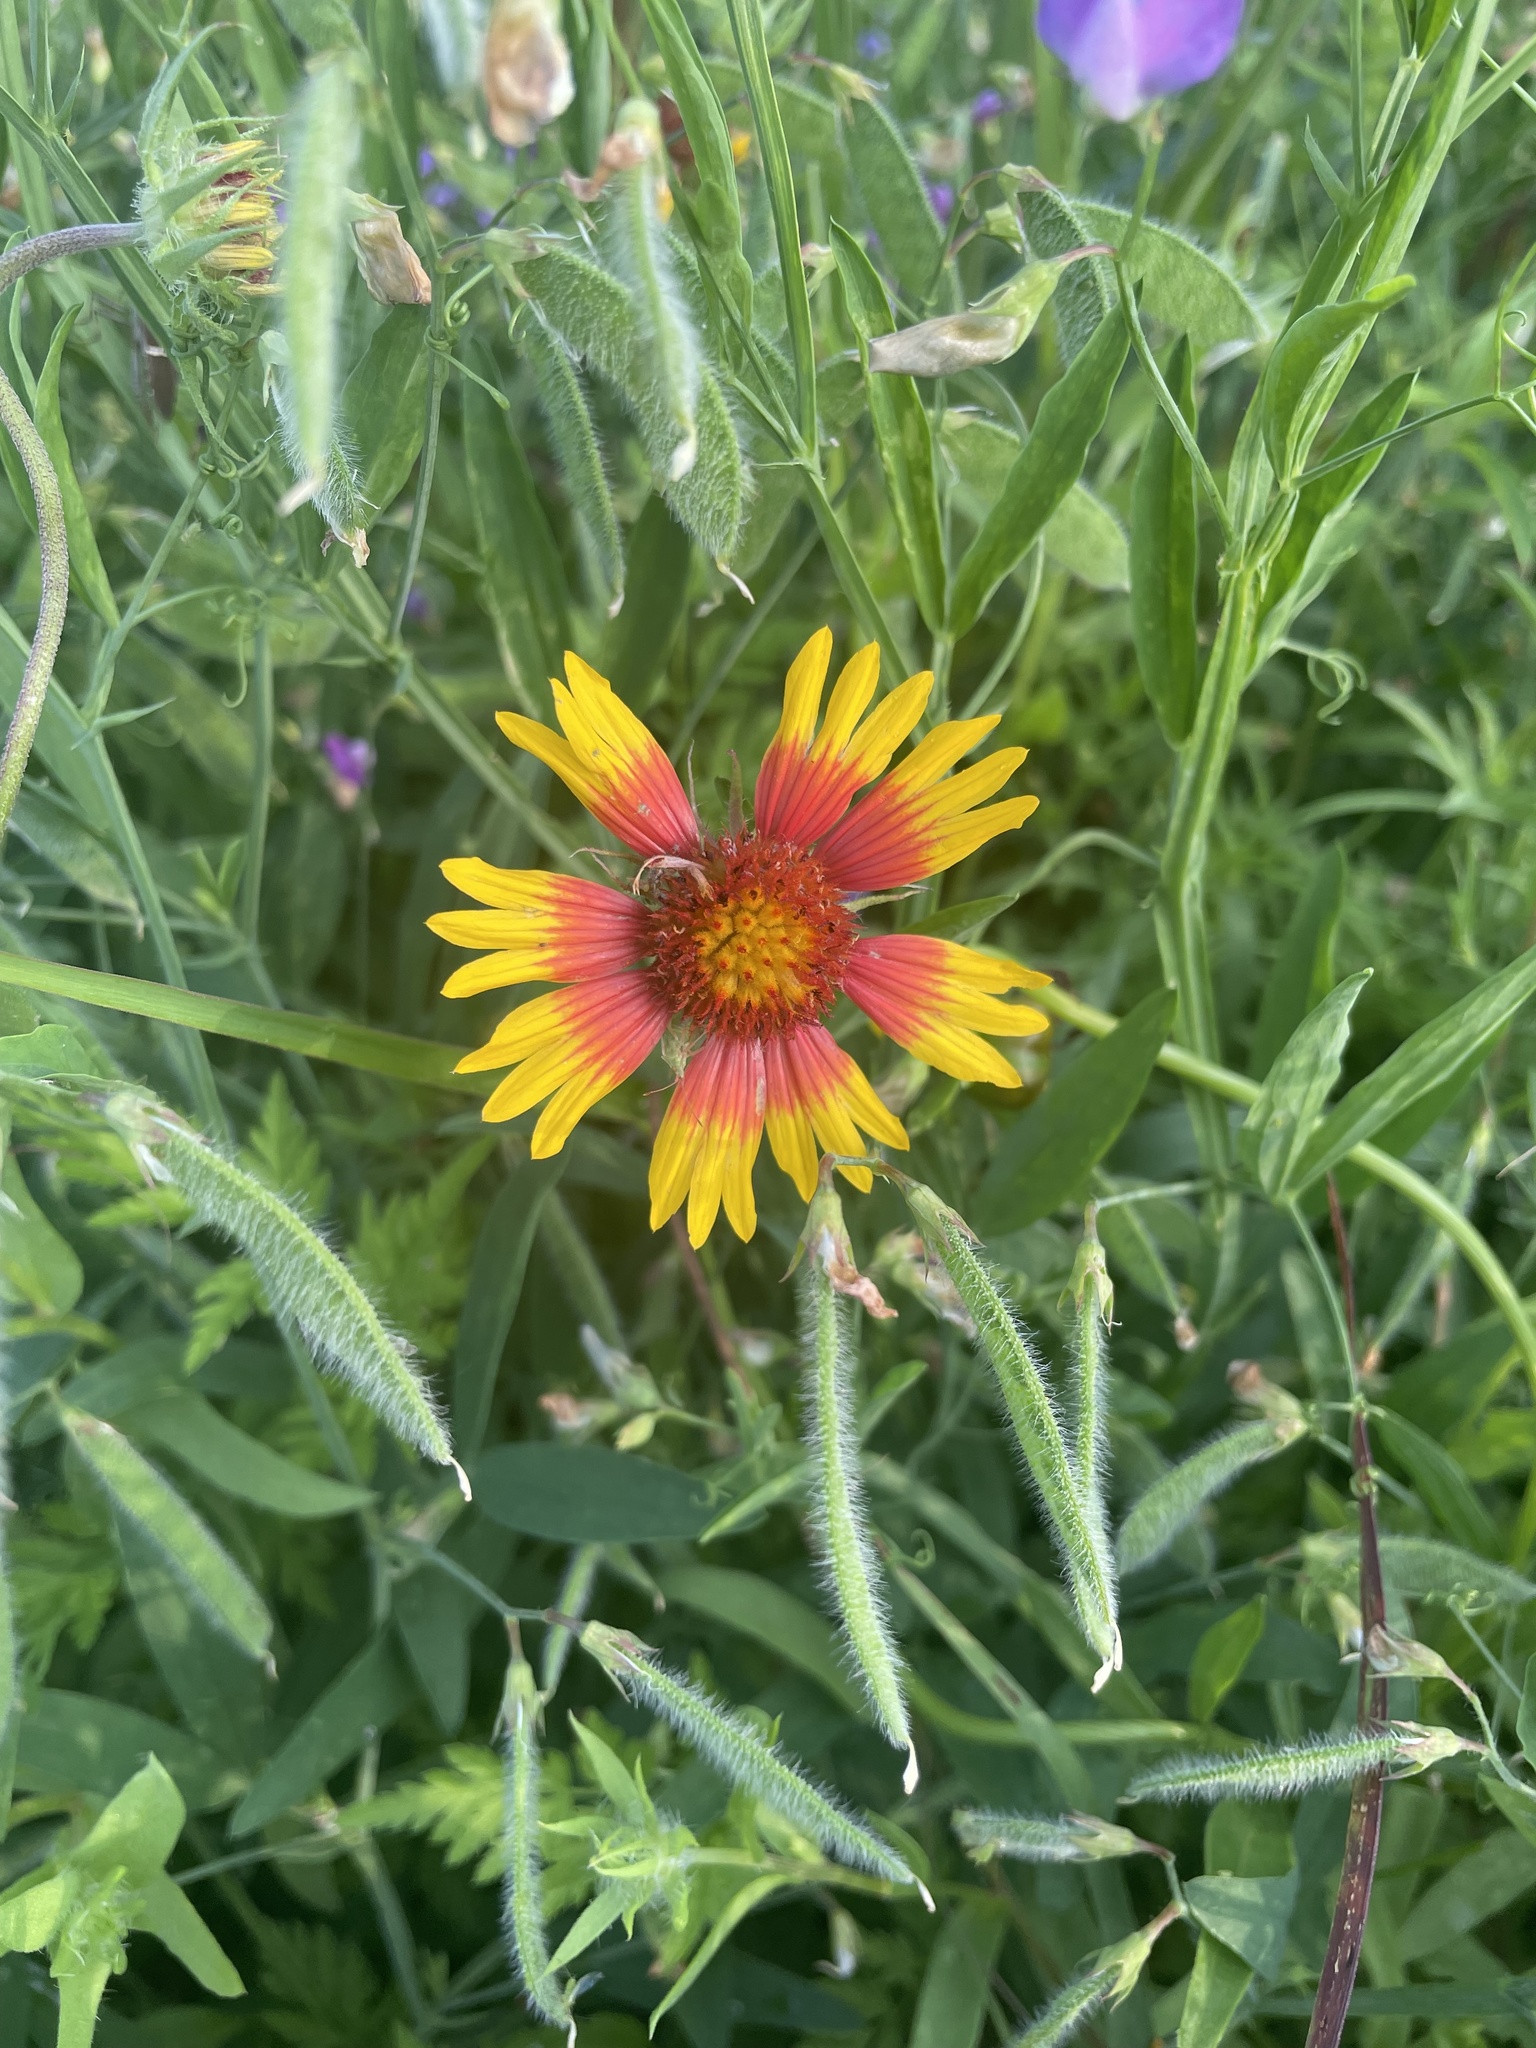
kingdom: Plantae
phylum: Tracheophyta
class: Magnoliopsida
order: Asterales
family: Asteraceae
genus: Gaillardia
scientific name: Gaillardia pulchella
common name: Firewheel
